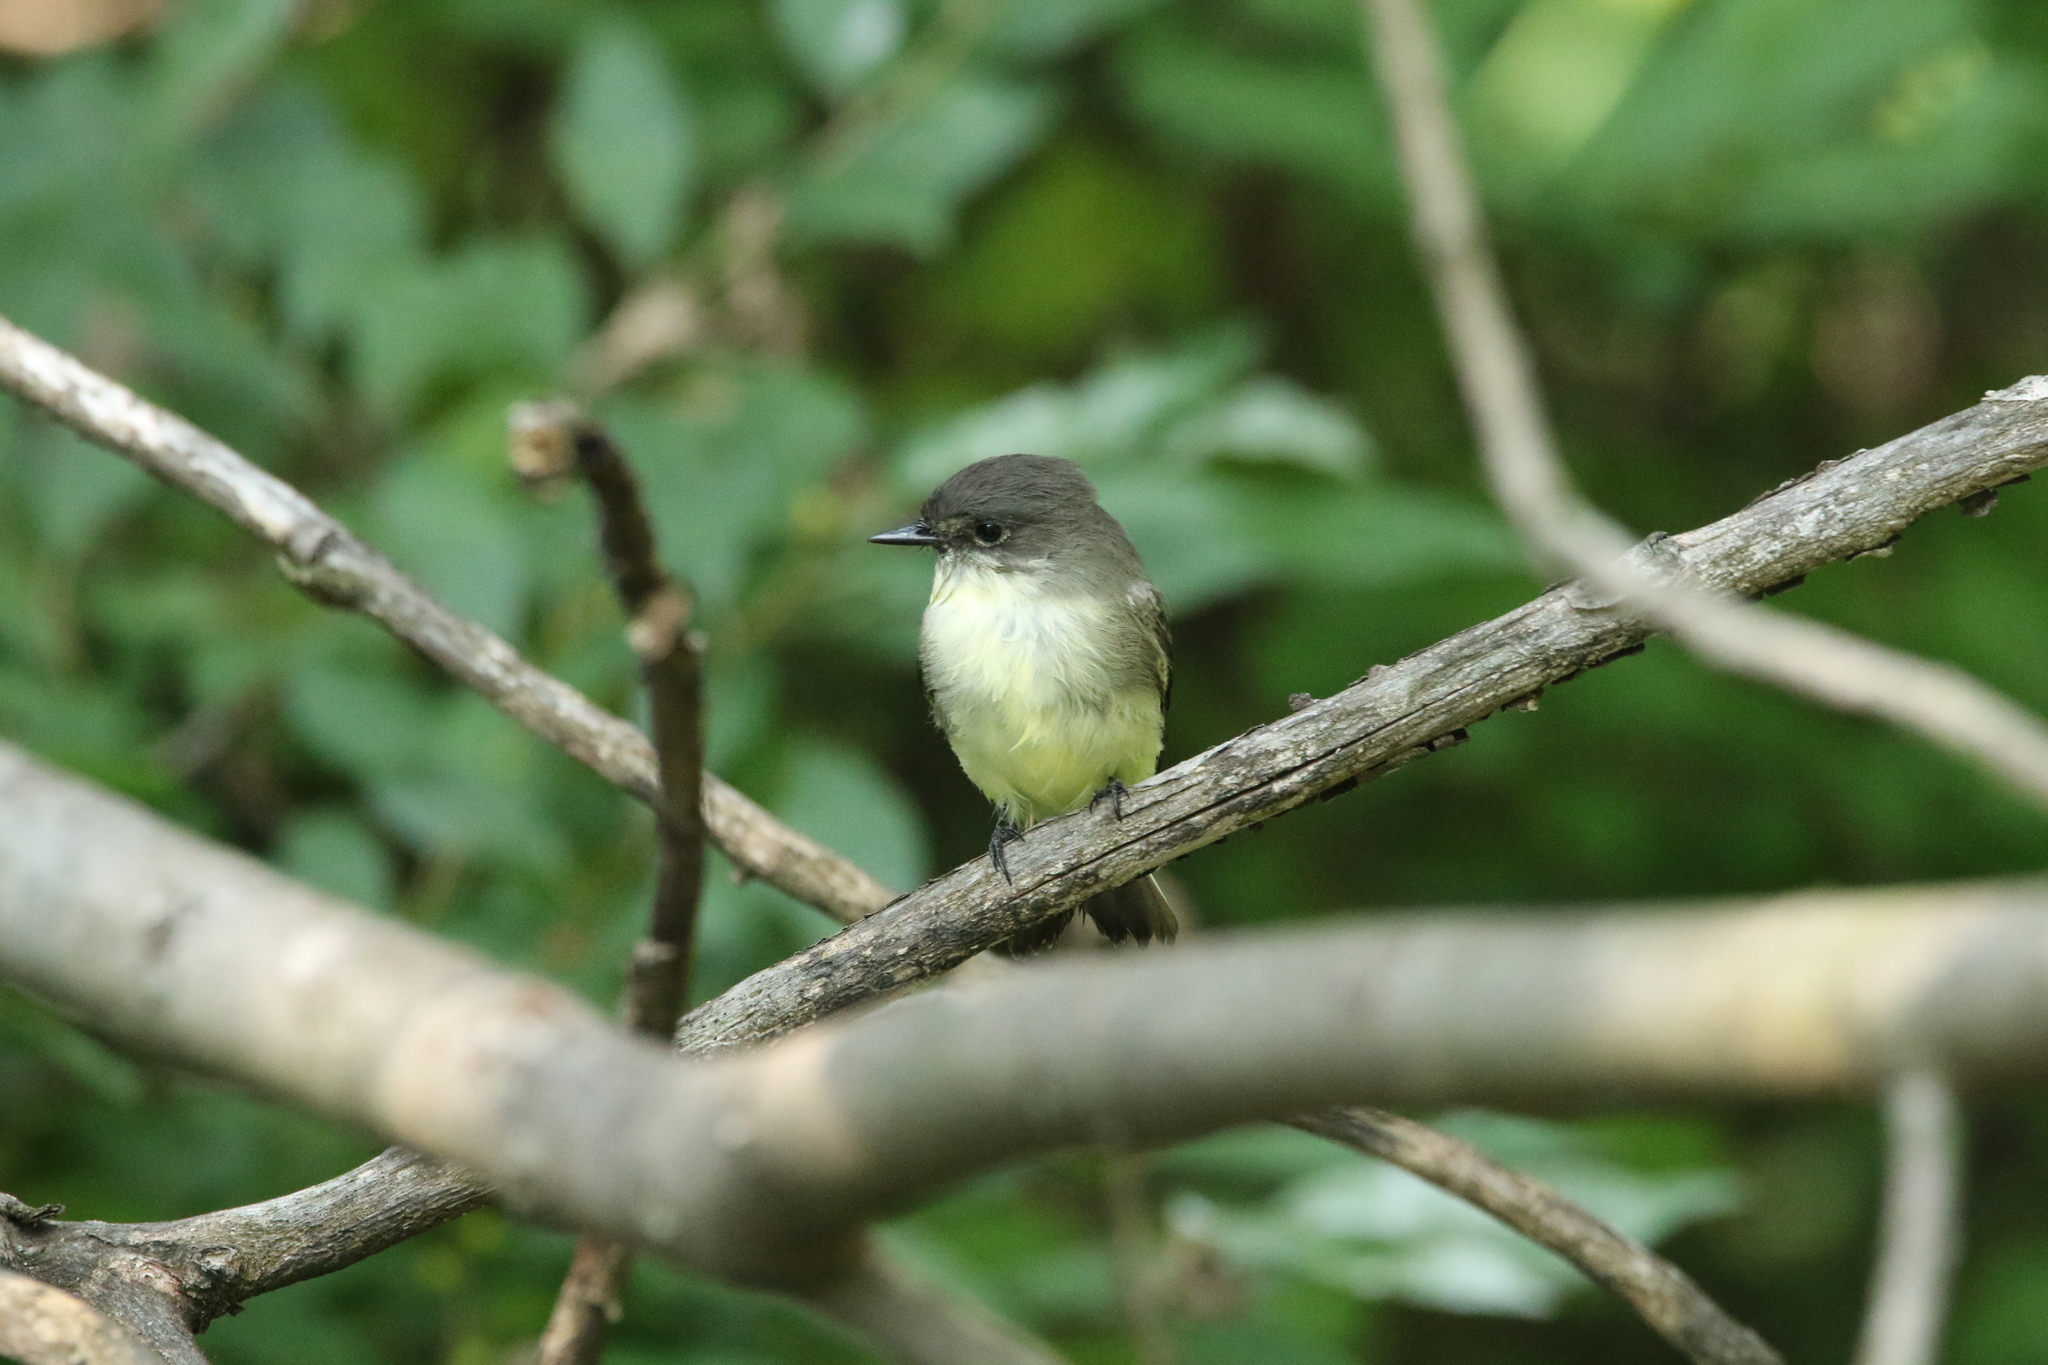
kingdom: Animalia
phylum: Chordata
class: Aves
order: Passeriformes
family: Tyrannidae
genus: Sayornis
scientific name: Sayornis phoebe
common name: Eastern phoebe
